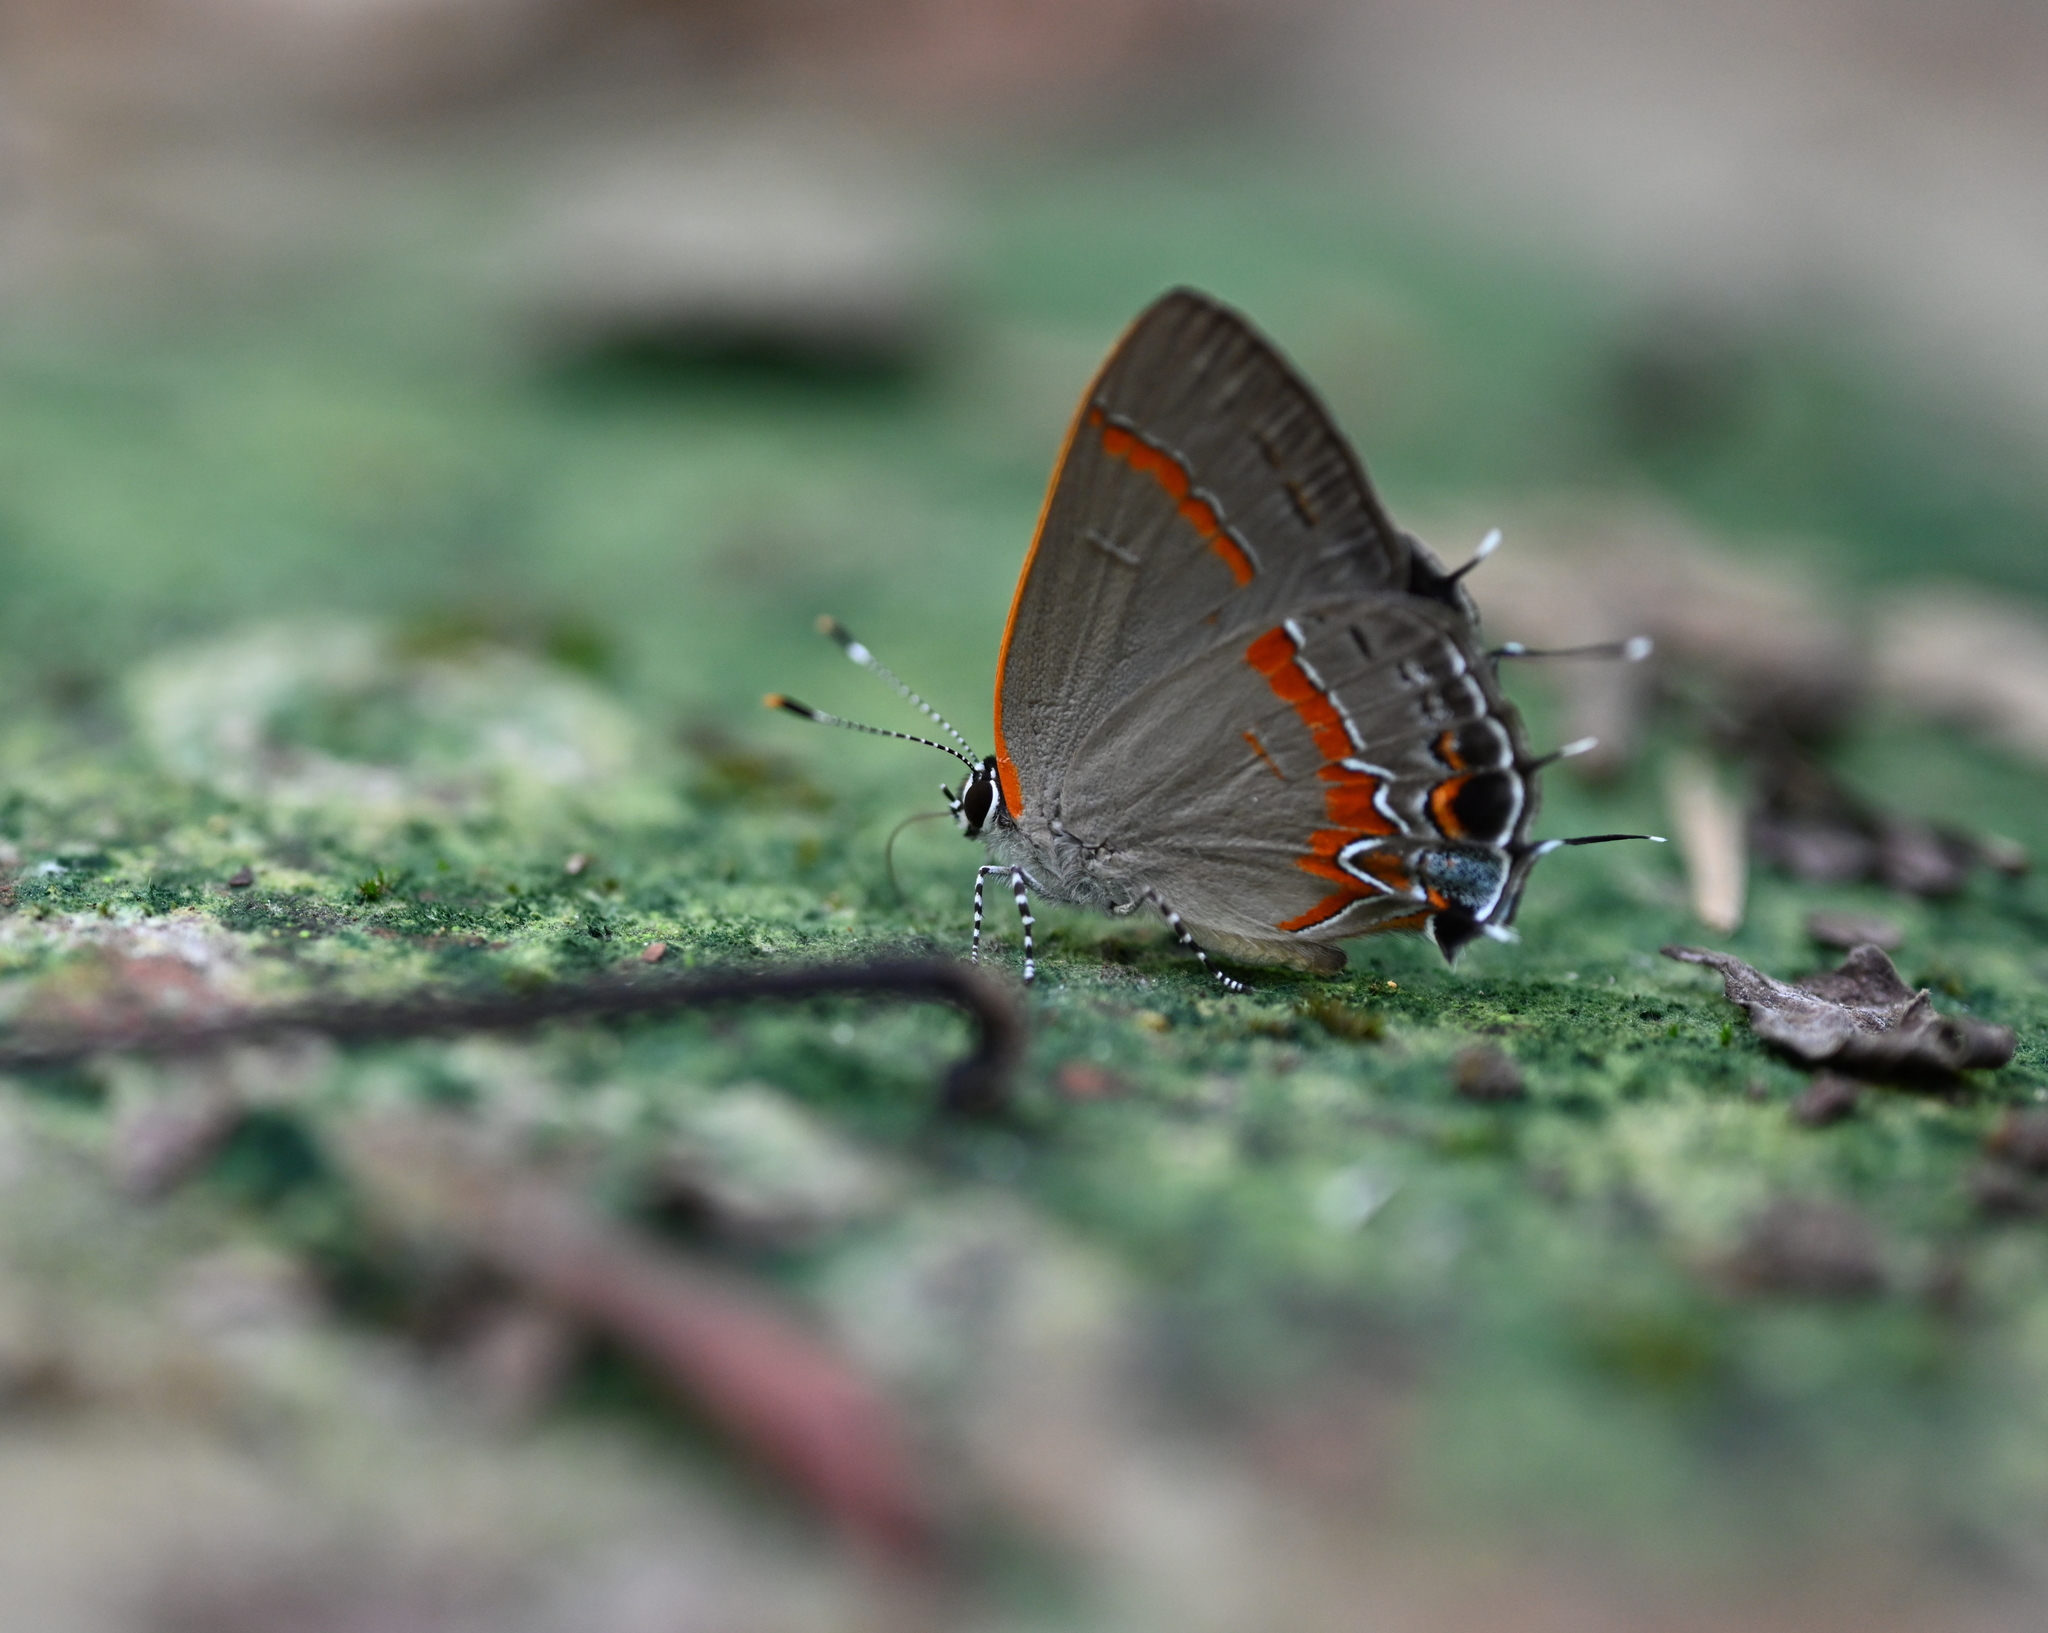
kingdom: Animalia
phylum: Arthropoda
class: Insecta
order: Lepidoptera
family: Lycaenidae
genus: Calycopis
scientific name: Calycopis cecrops
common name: Red-banded hairstreak
